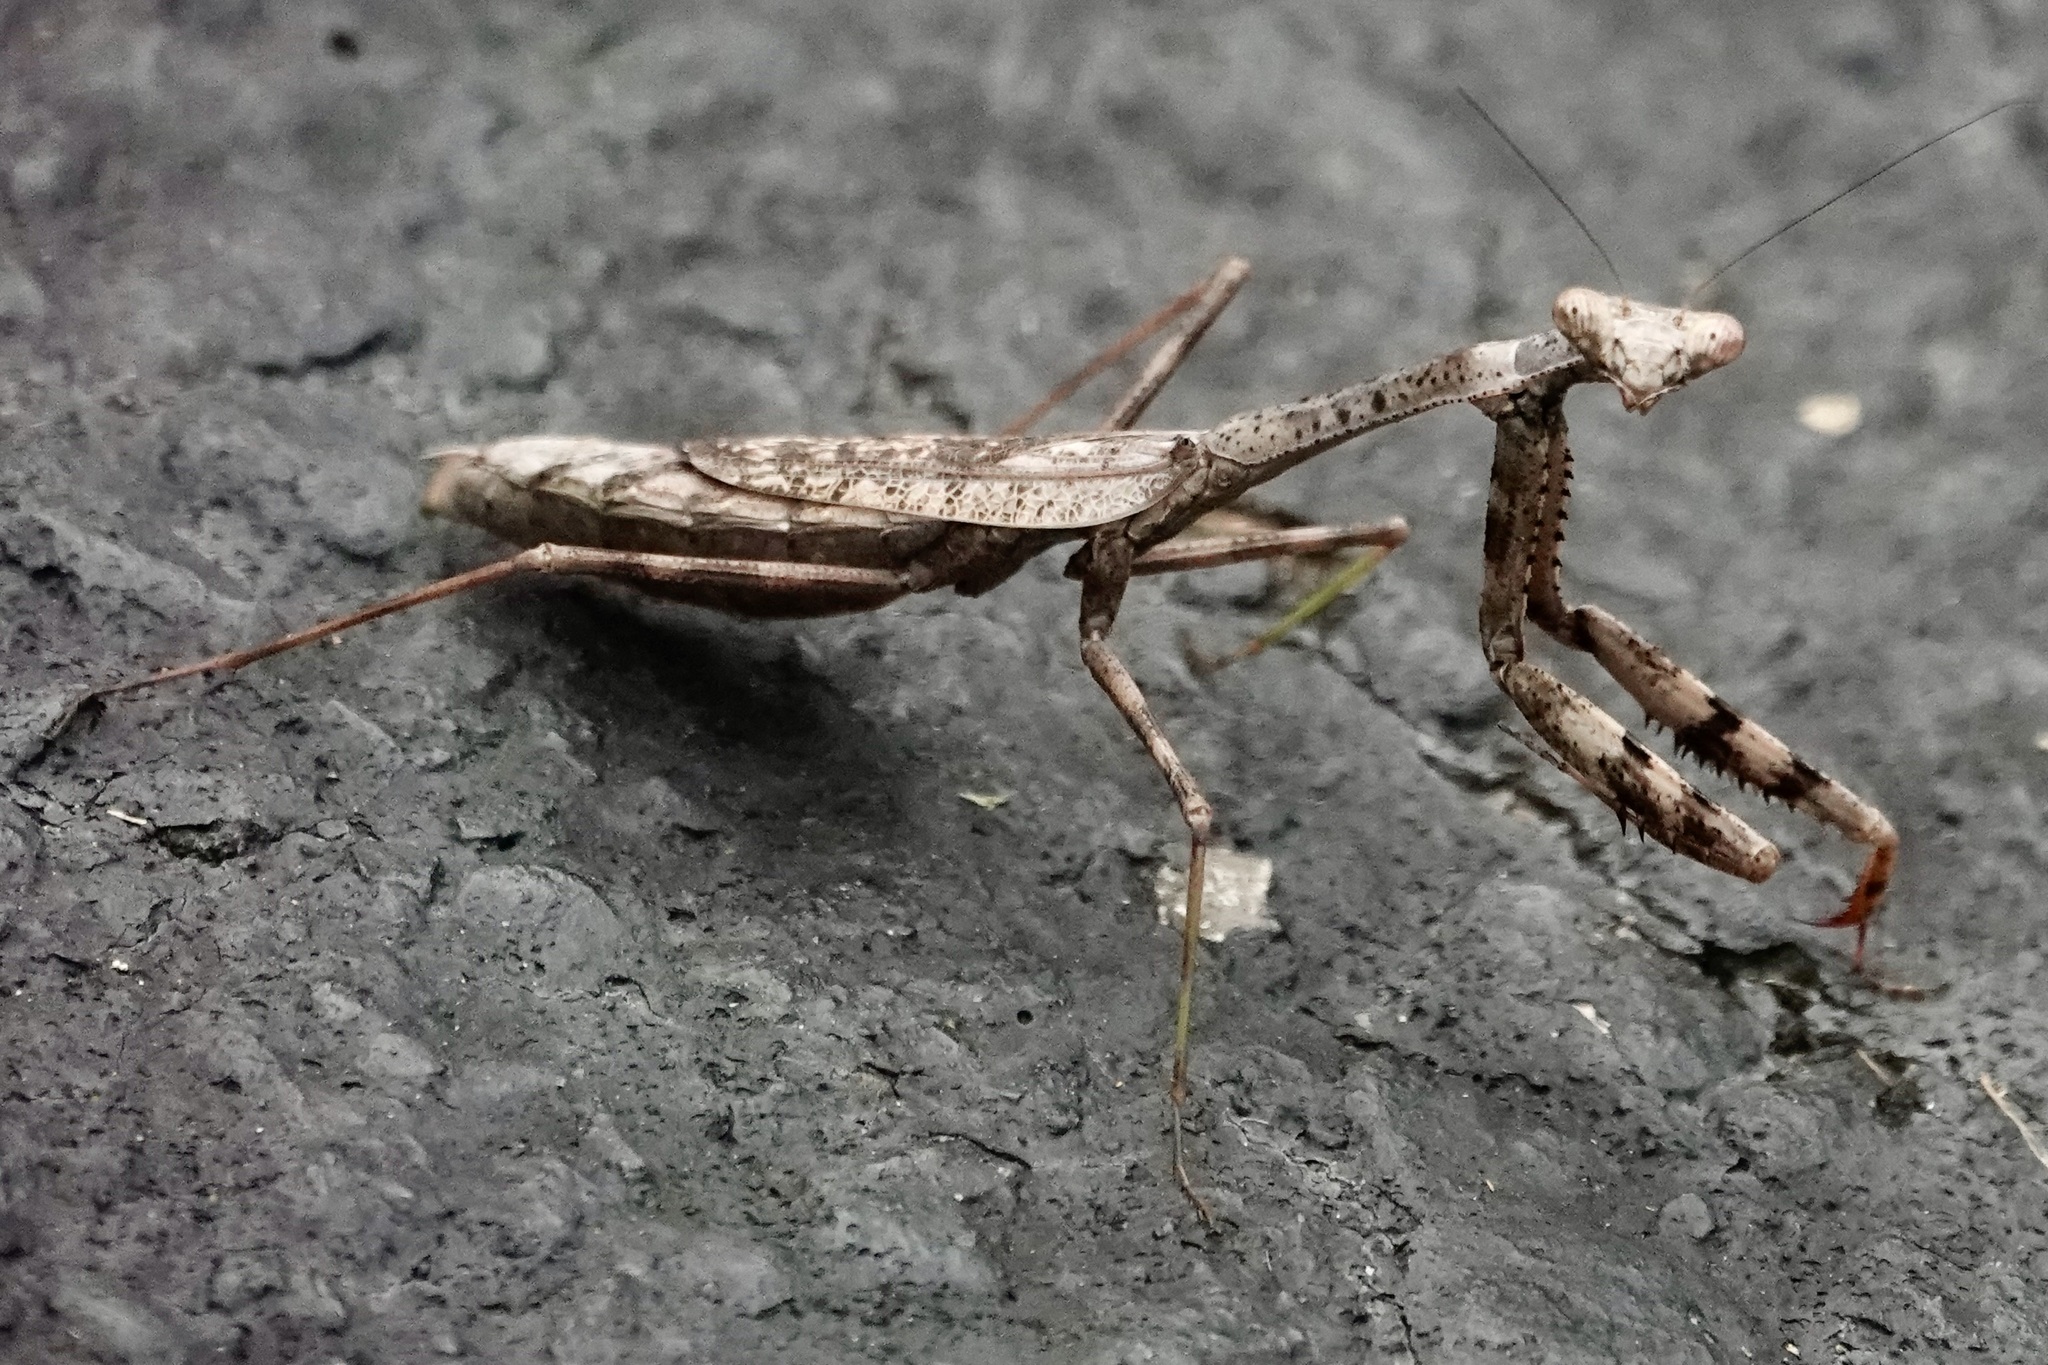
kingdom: Animalia
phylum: Arthropoda
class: Insecta
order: Mantodea
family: Mantidae
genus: Stagmomantis
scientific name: Stagmomantis carolina
